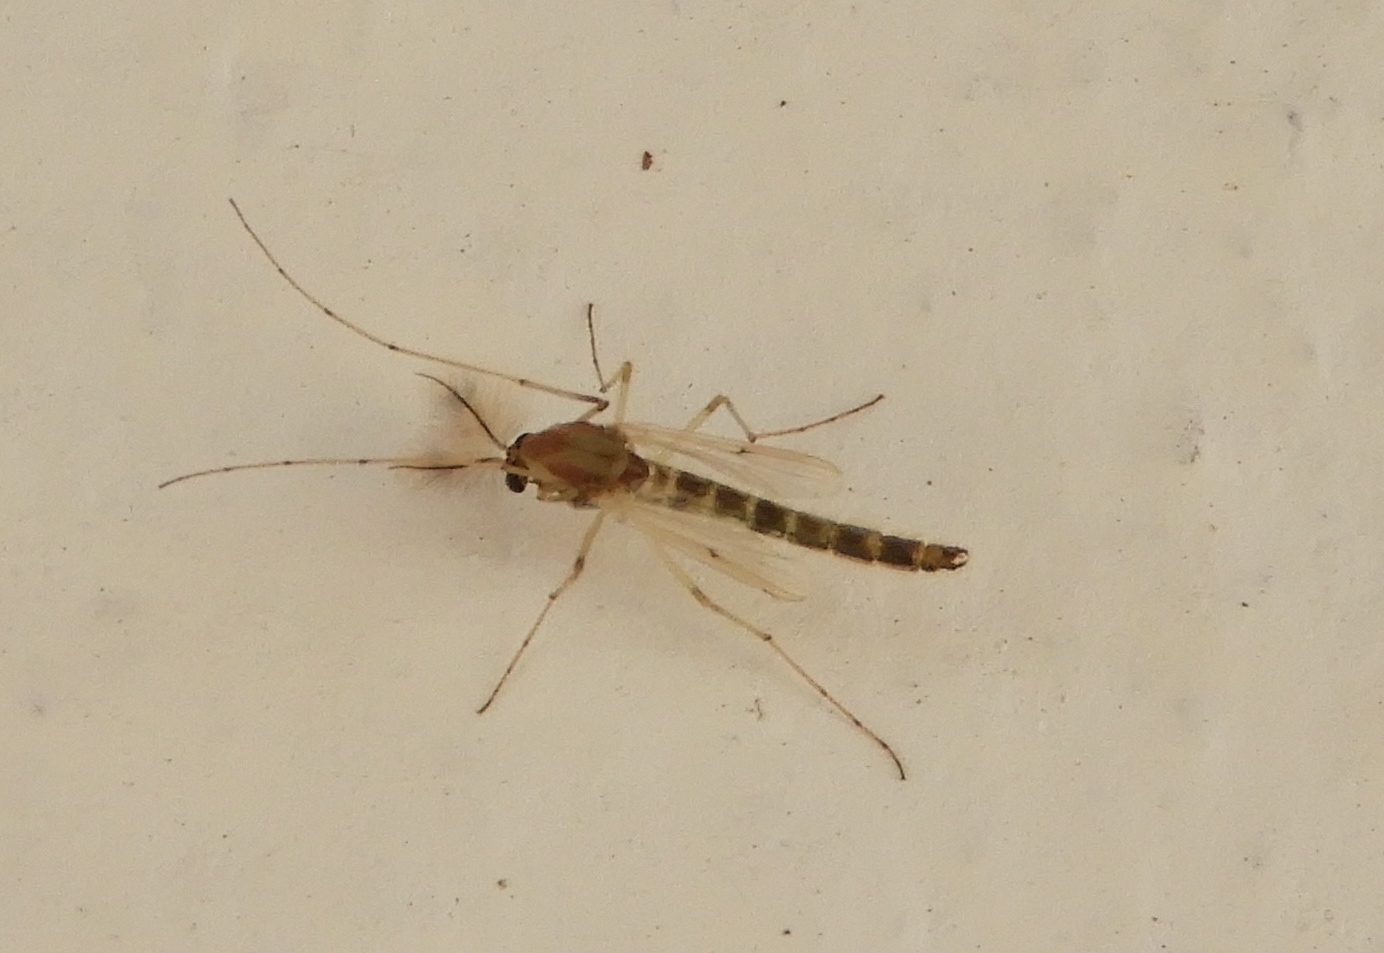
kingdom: Animalia
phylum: Arthropoda
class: Insecta
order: Diptera
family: Chironomidae
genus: Chironomus
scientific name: Chironomus
